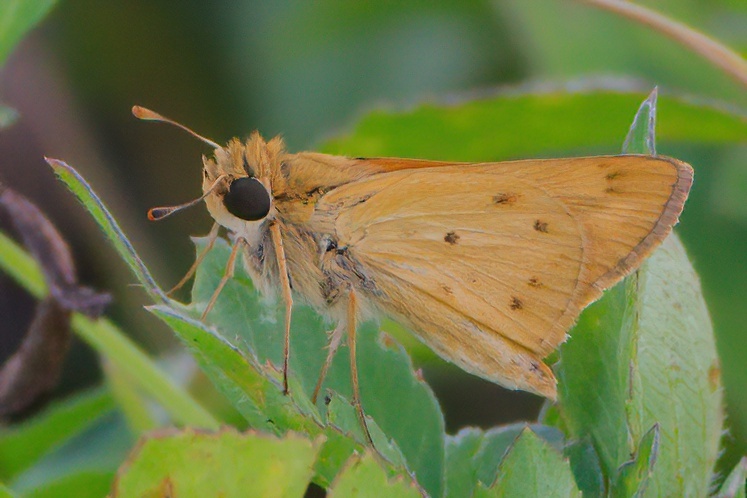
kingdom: Animalia
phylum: Arthropoda
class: Insecta
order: Lepidoptera
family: Hesperiidae
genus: Hylephila
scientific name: Hylephila phyleus
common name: Fiery skipper
